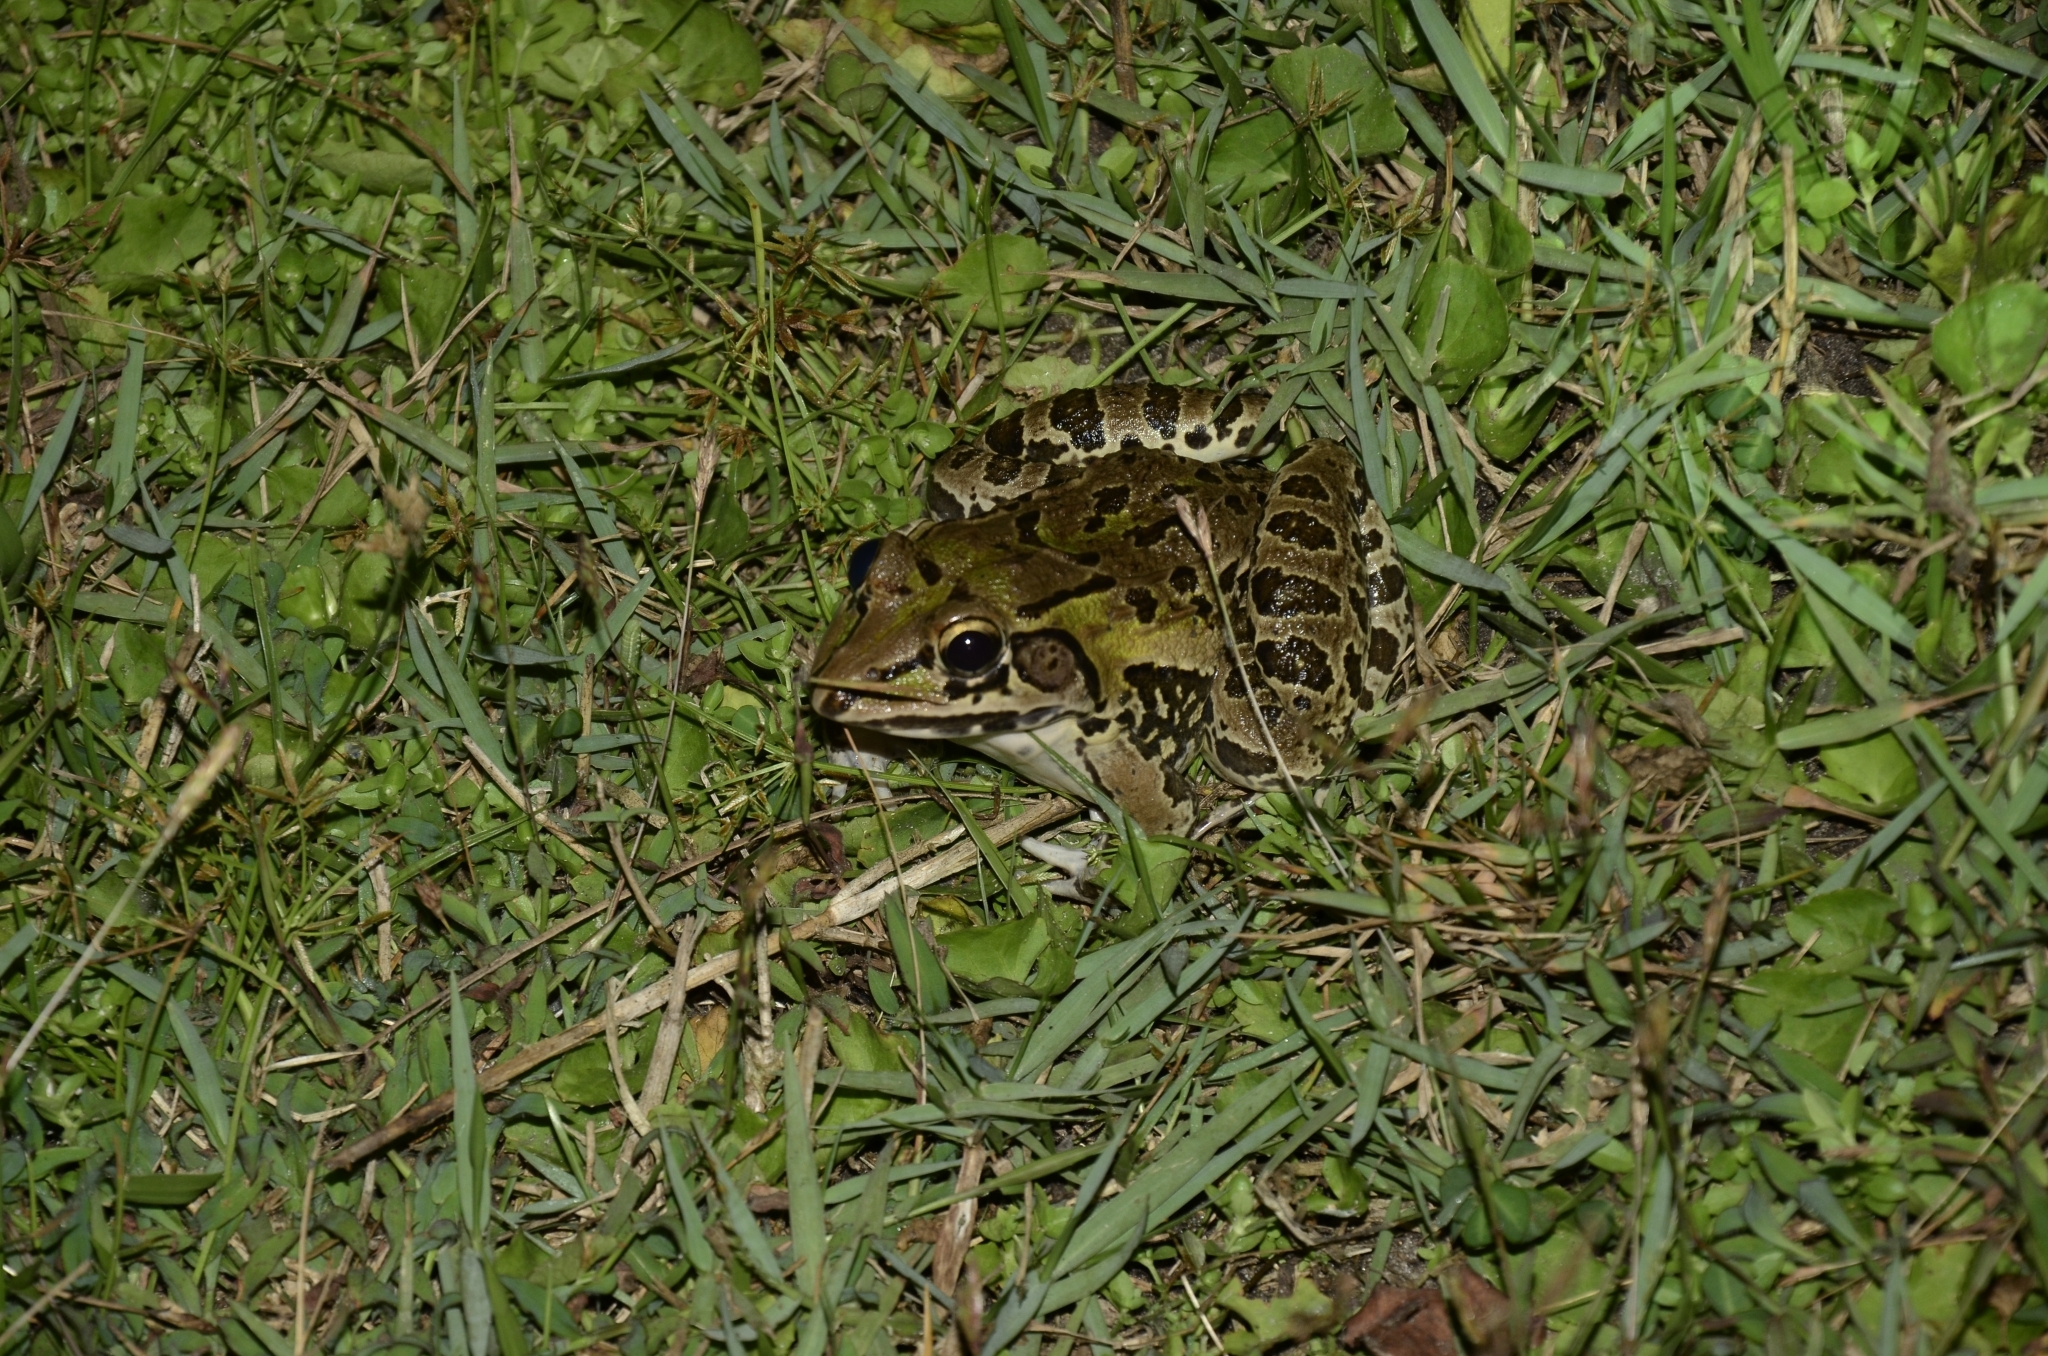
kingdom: Animalia
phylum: Chordata
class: Amphibia
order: Anura
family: Dicroglossidae
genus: Hoplobatrachus
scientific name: Hoplobatrachus tigerinus
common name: Indian bullfrog
